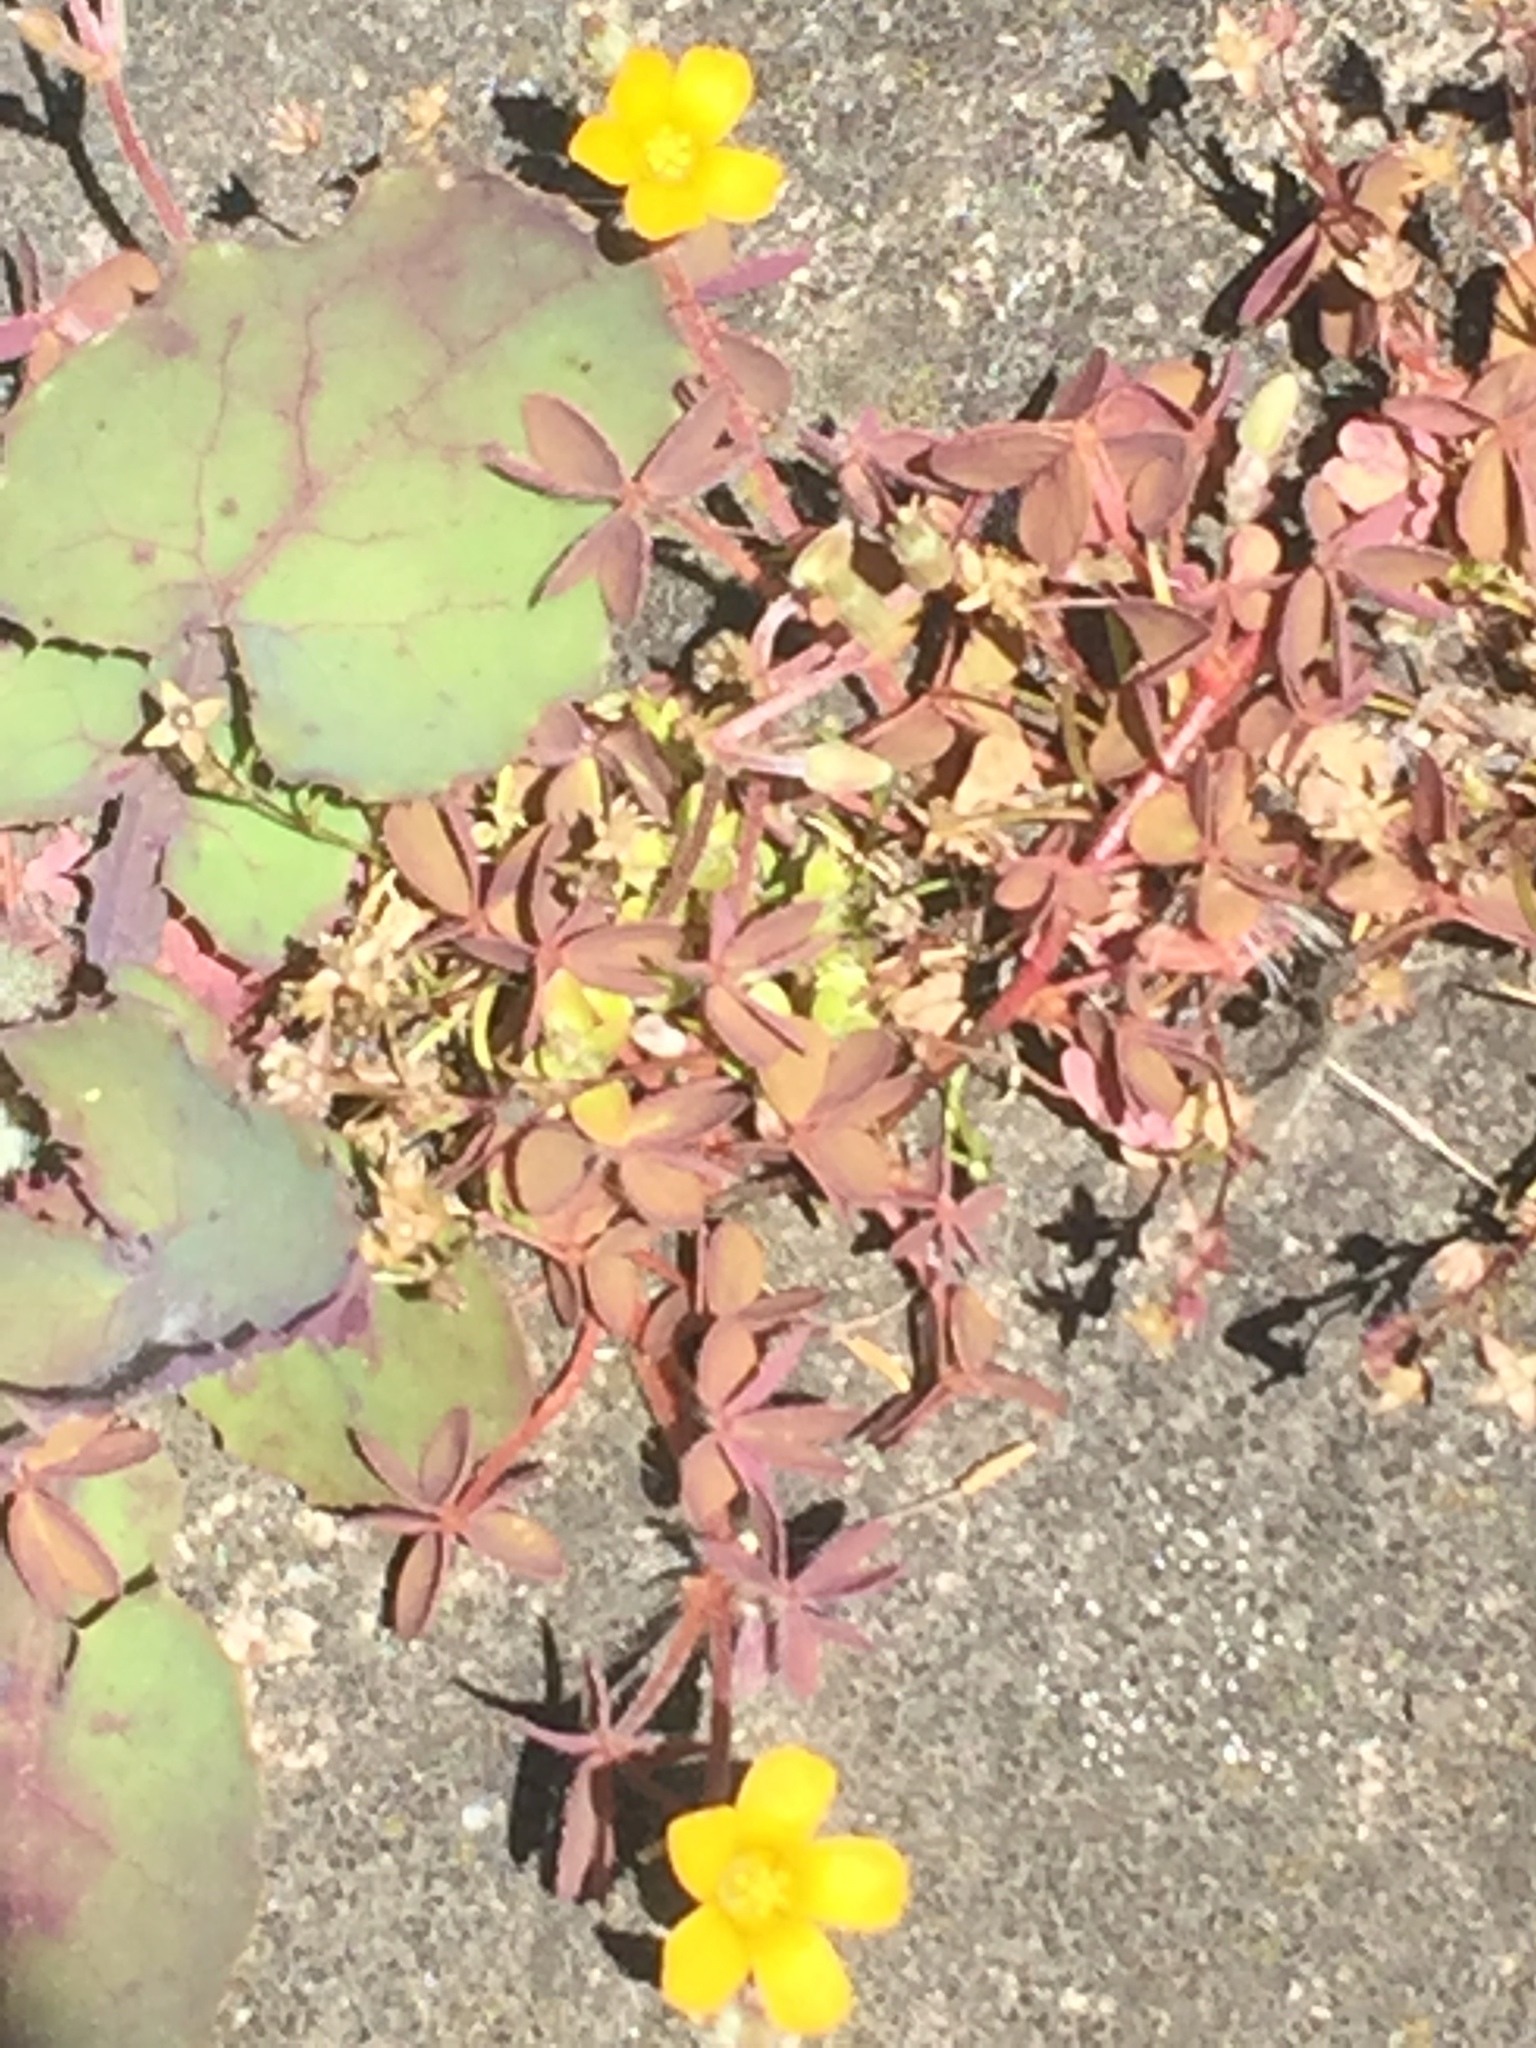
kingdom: Plantae
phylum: Tracheophyta
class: Magnoliopsida
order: Oxalidales
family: Oxalidaceae
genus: Oxalis
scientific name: Oxalis corniculata
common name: Procumbent yellow-sorrel
